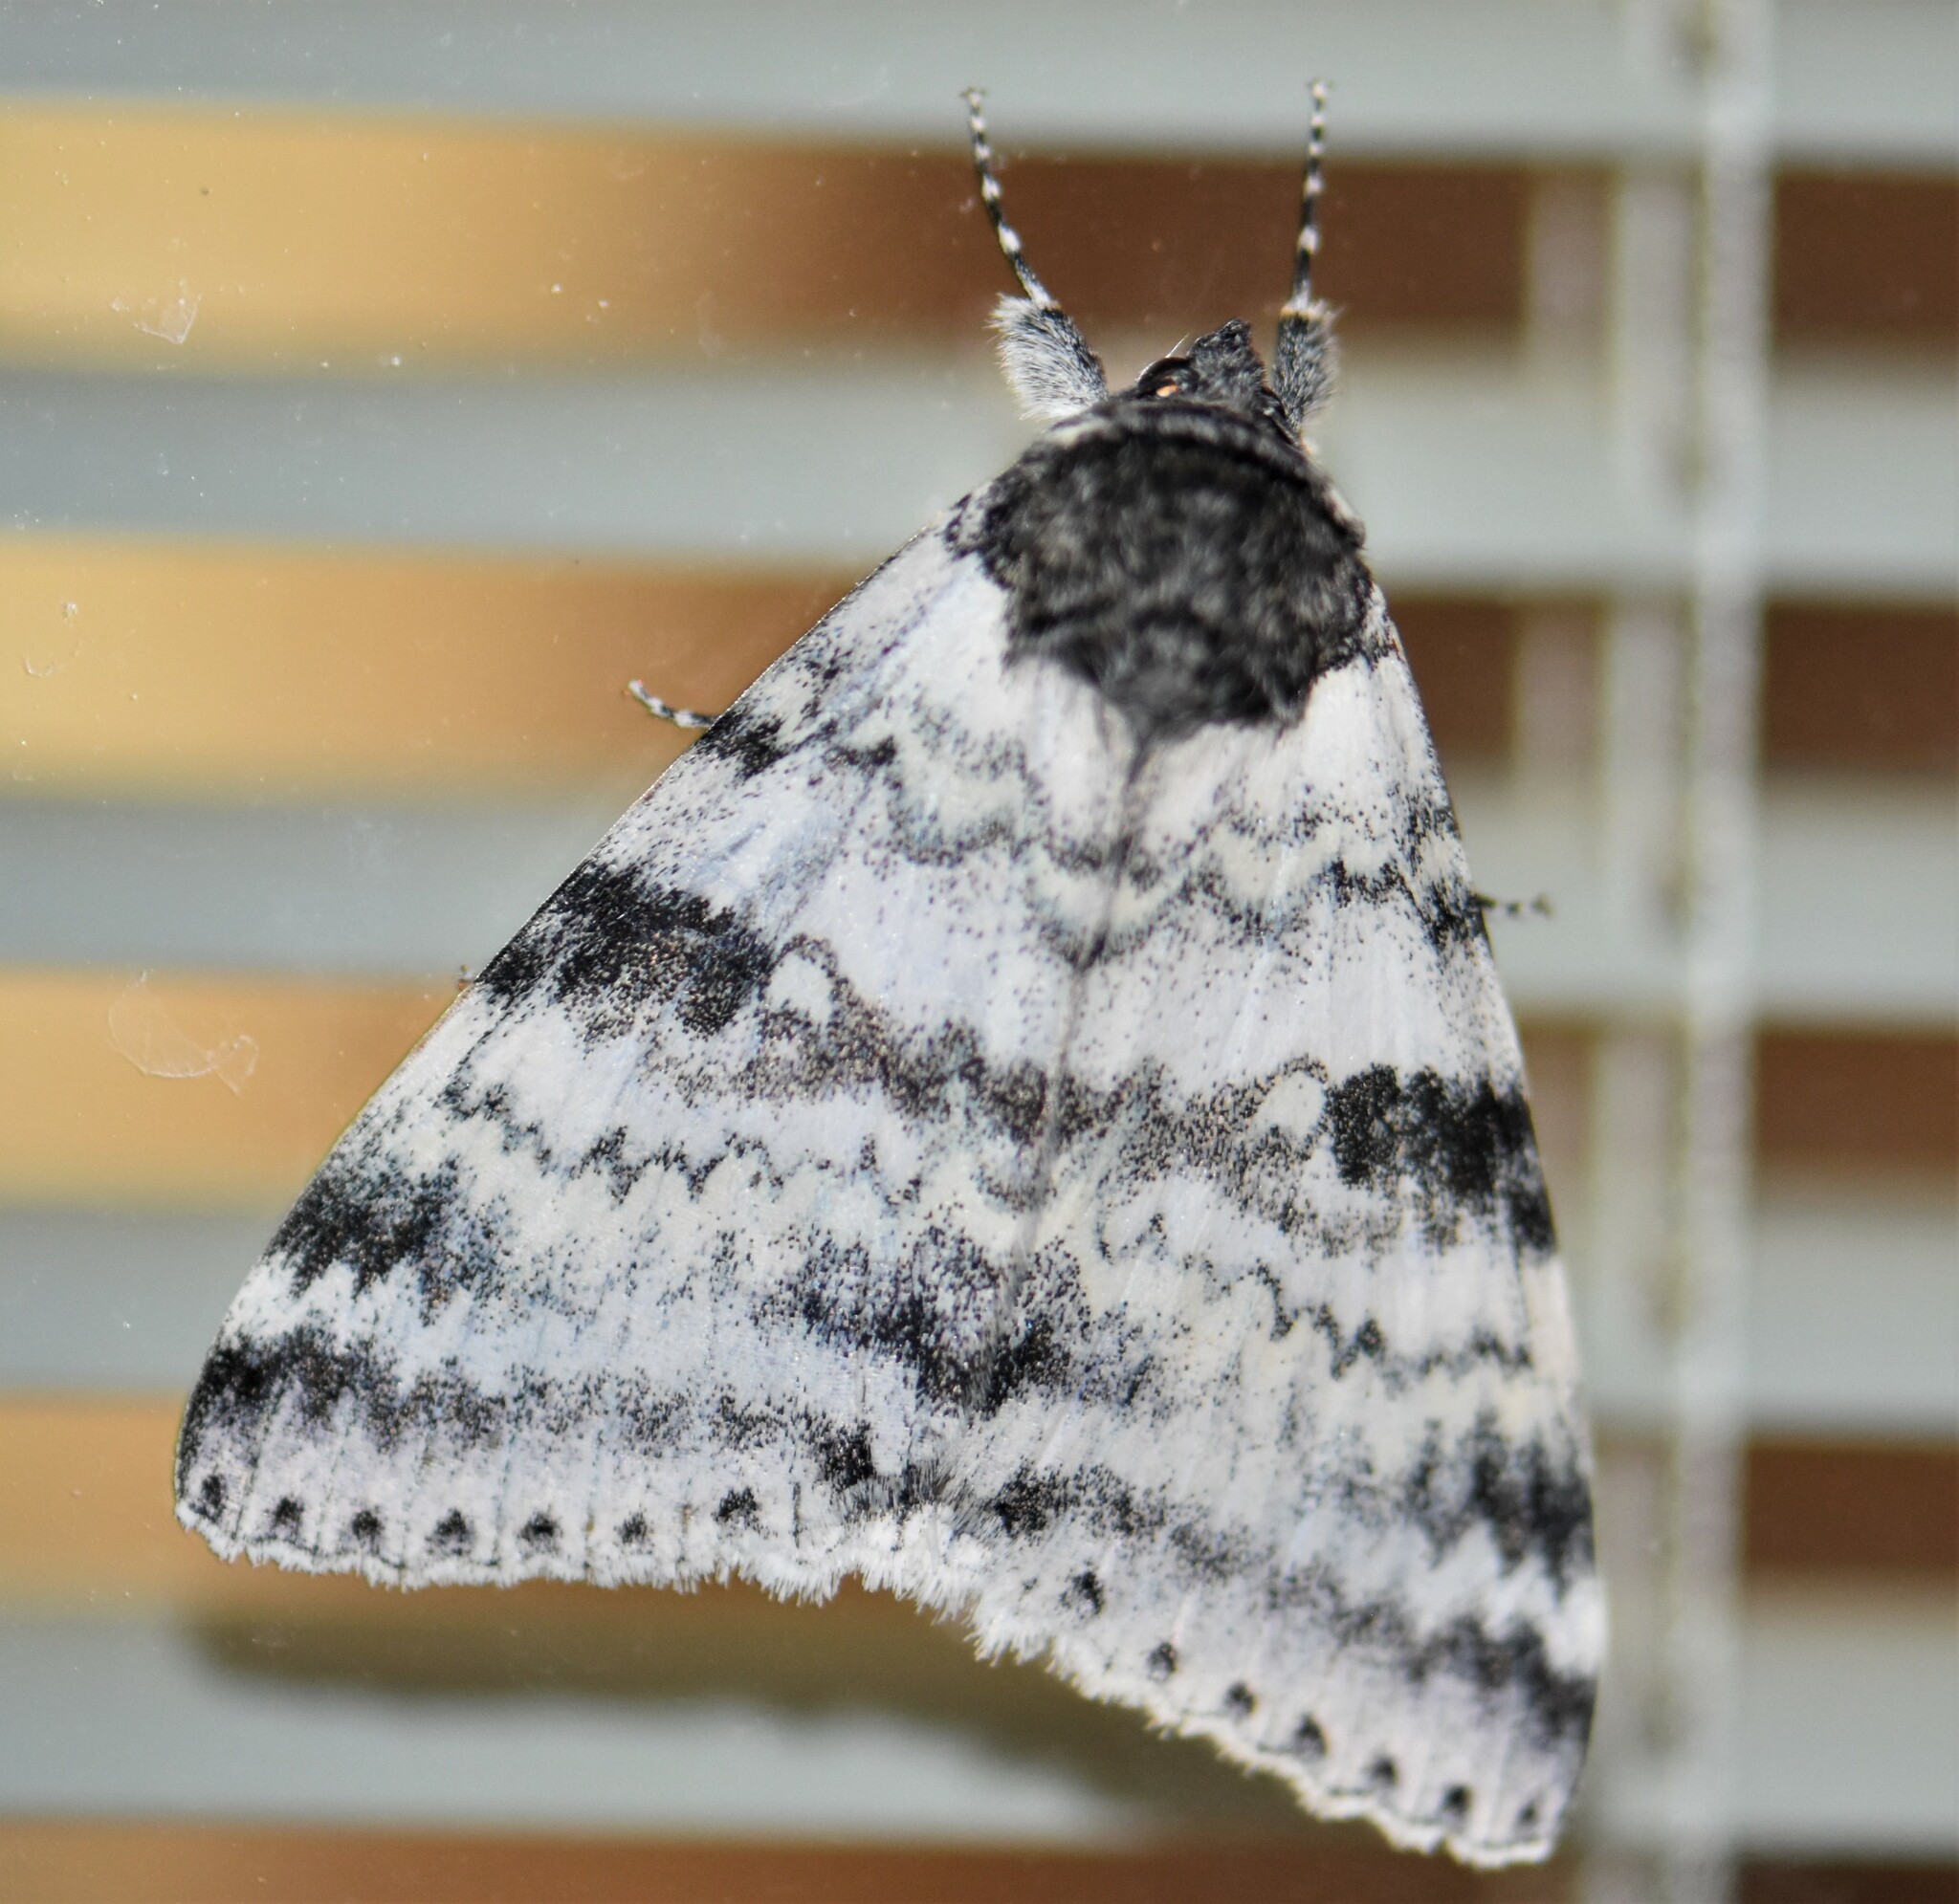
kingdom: Animalia
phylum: Arthropoda
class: Insecta
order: Lepidoptera
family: Erebidae
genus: Catocala
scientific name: Catocala relicta
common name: White underwing
